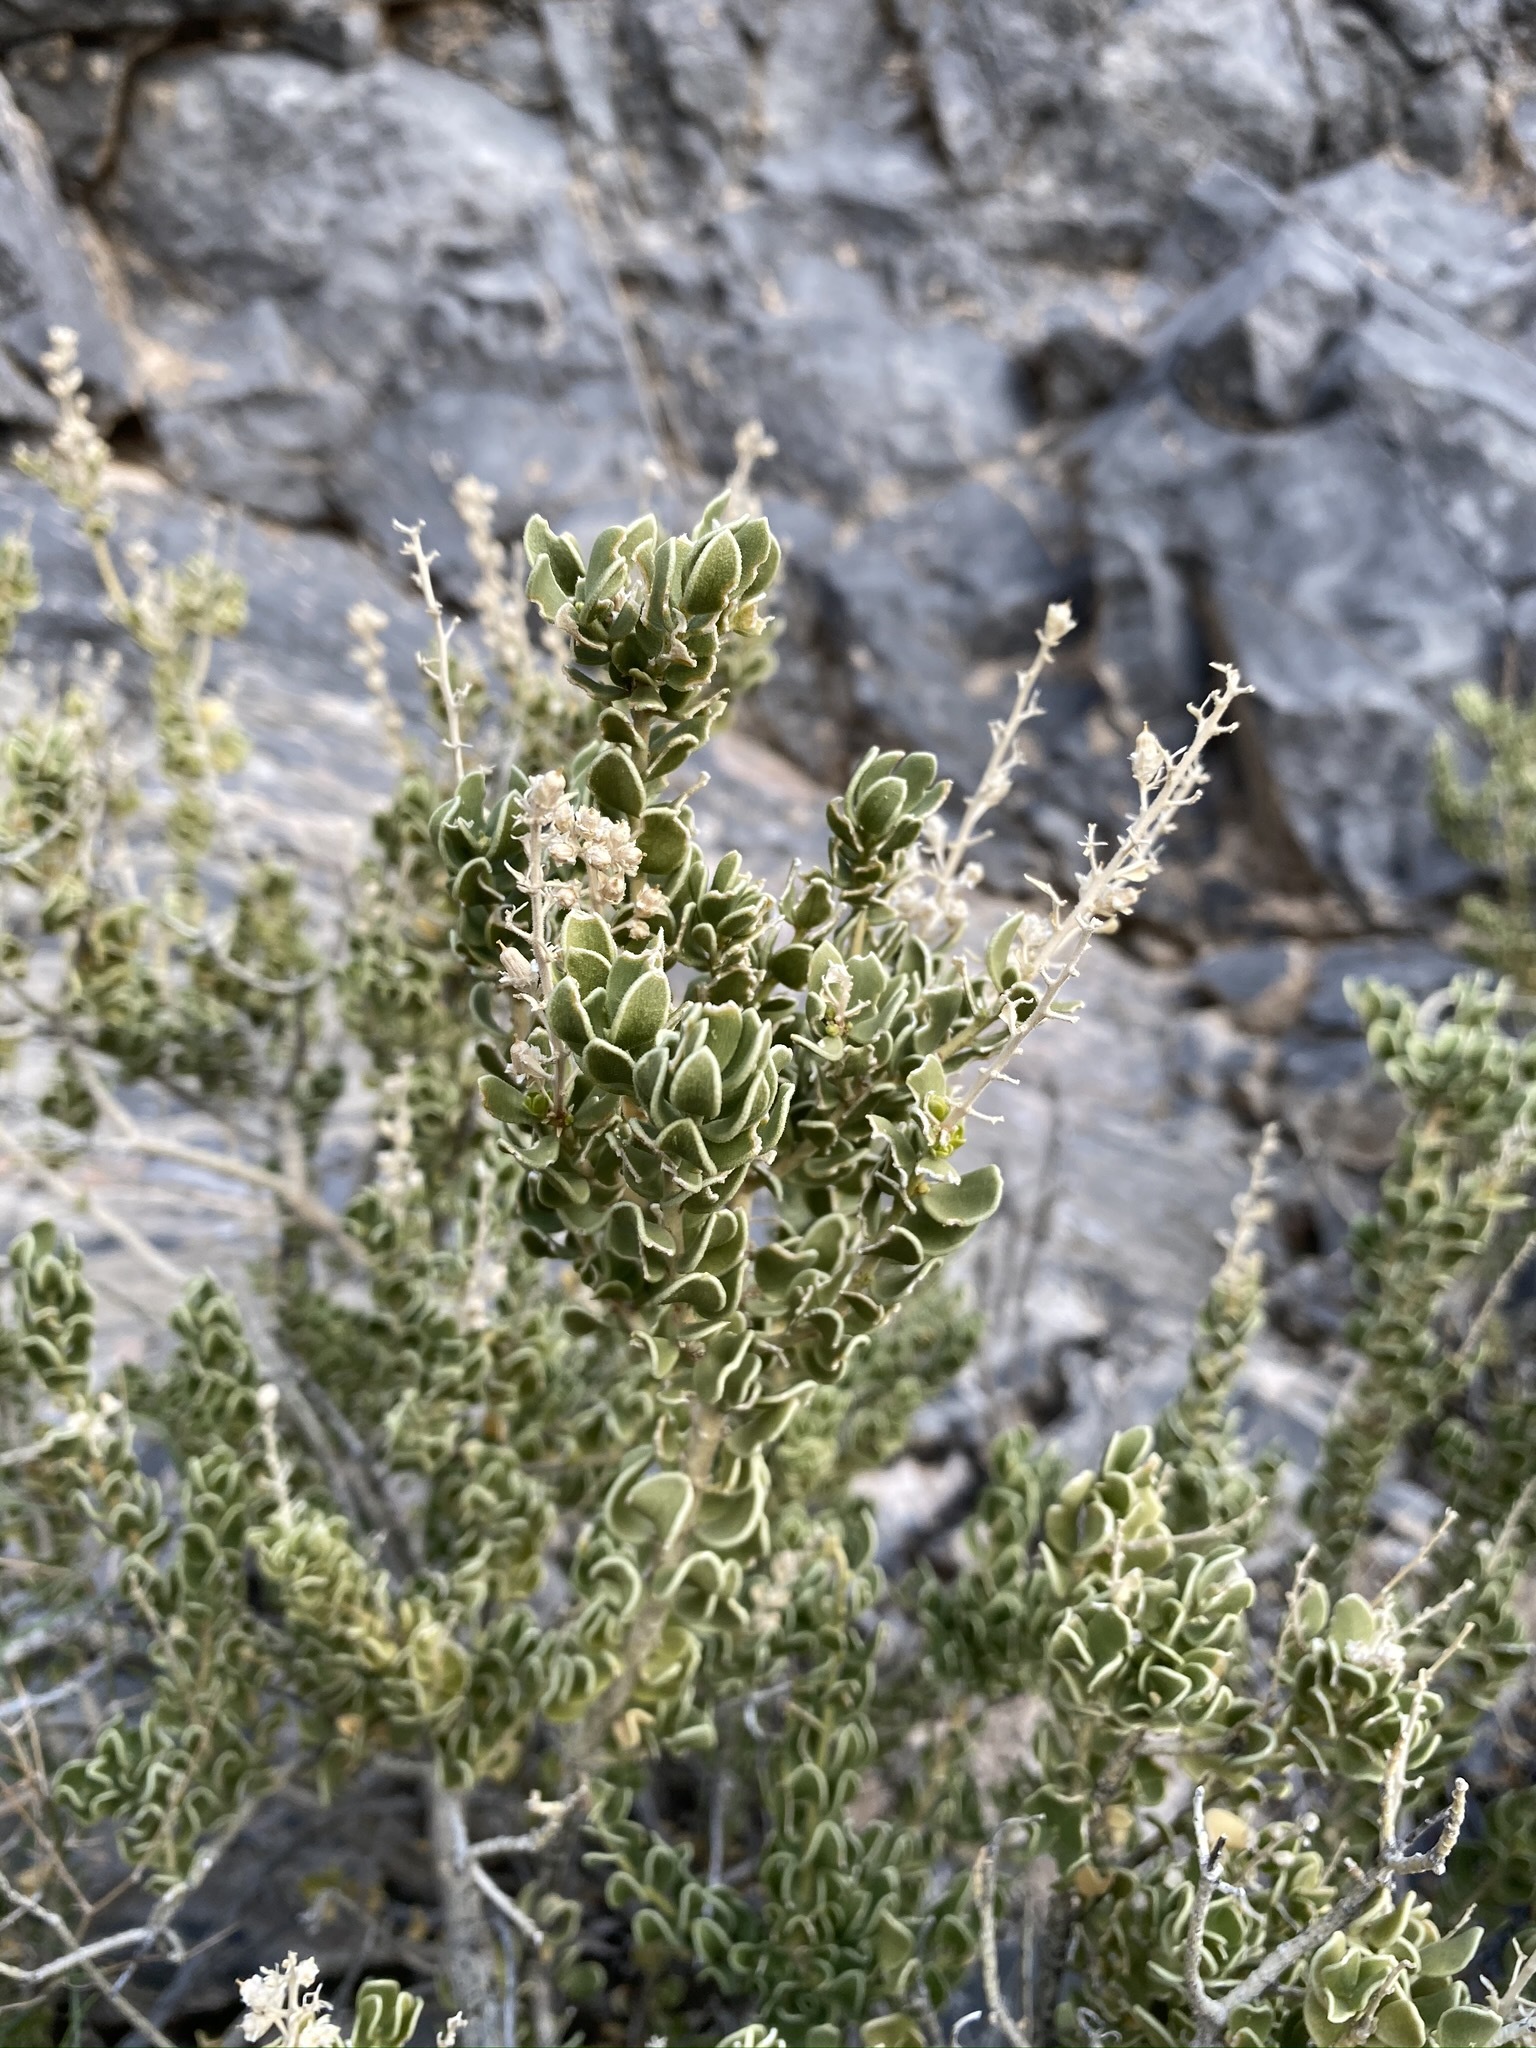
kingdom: Plantae
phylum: Tracheophyta
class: Magnoliopsida
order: Celastrales
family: Celastraceae
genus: Mortonia
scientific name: Mortonia utahensis
